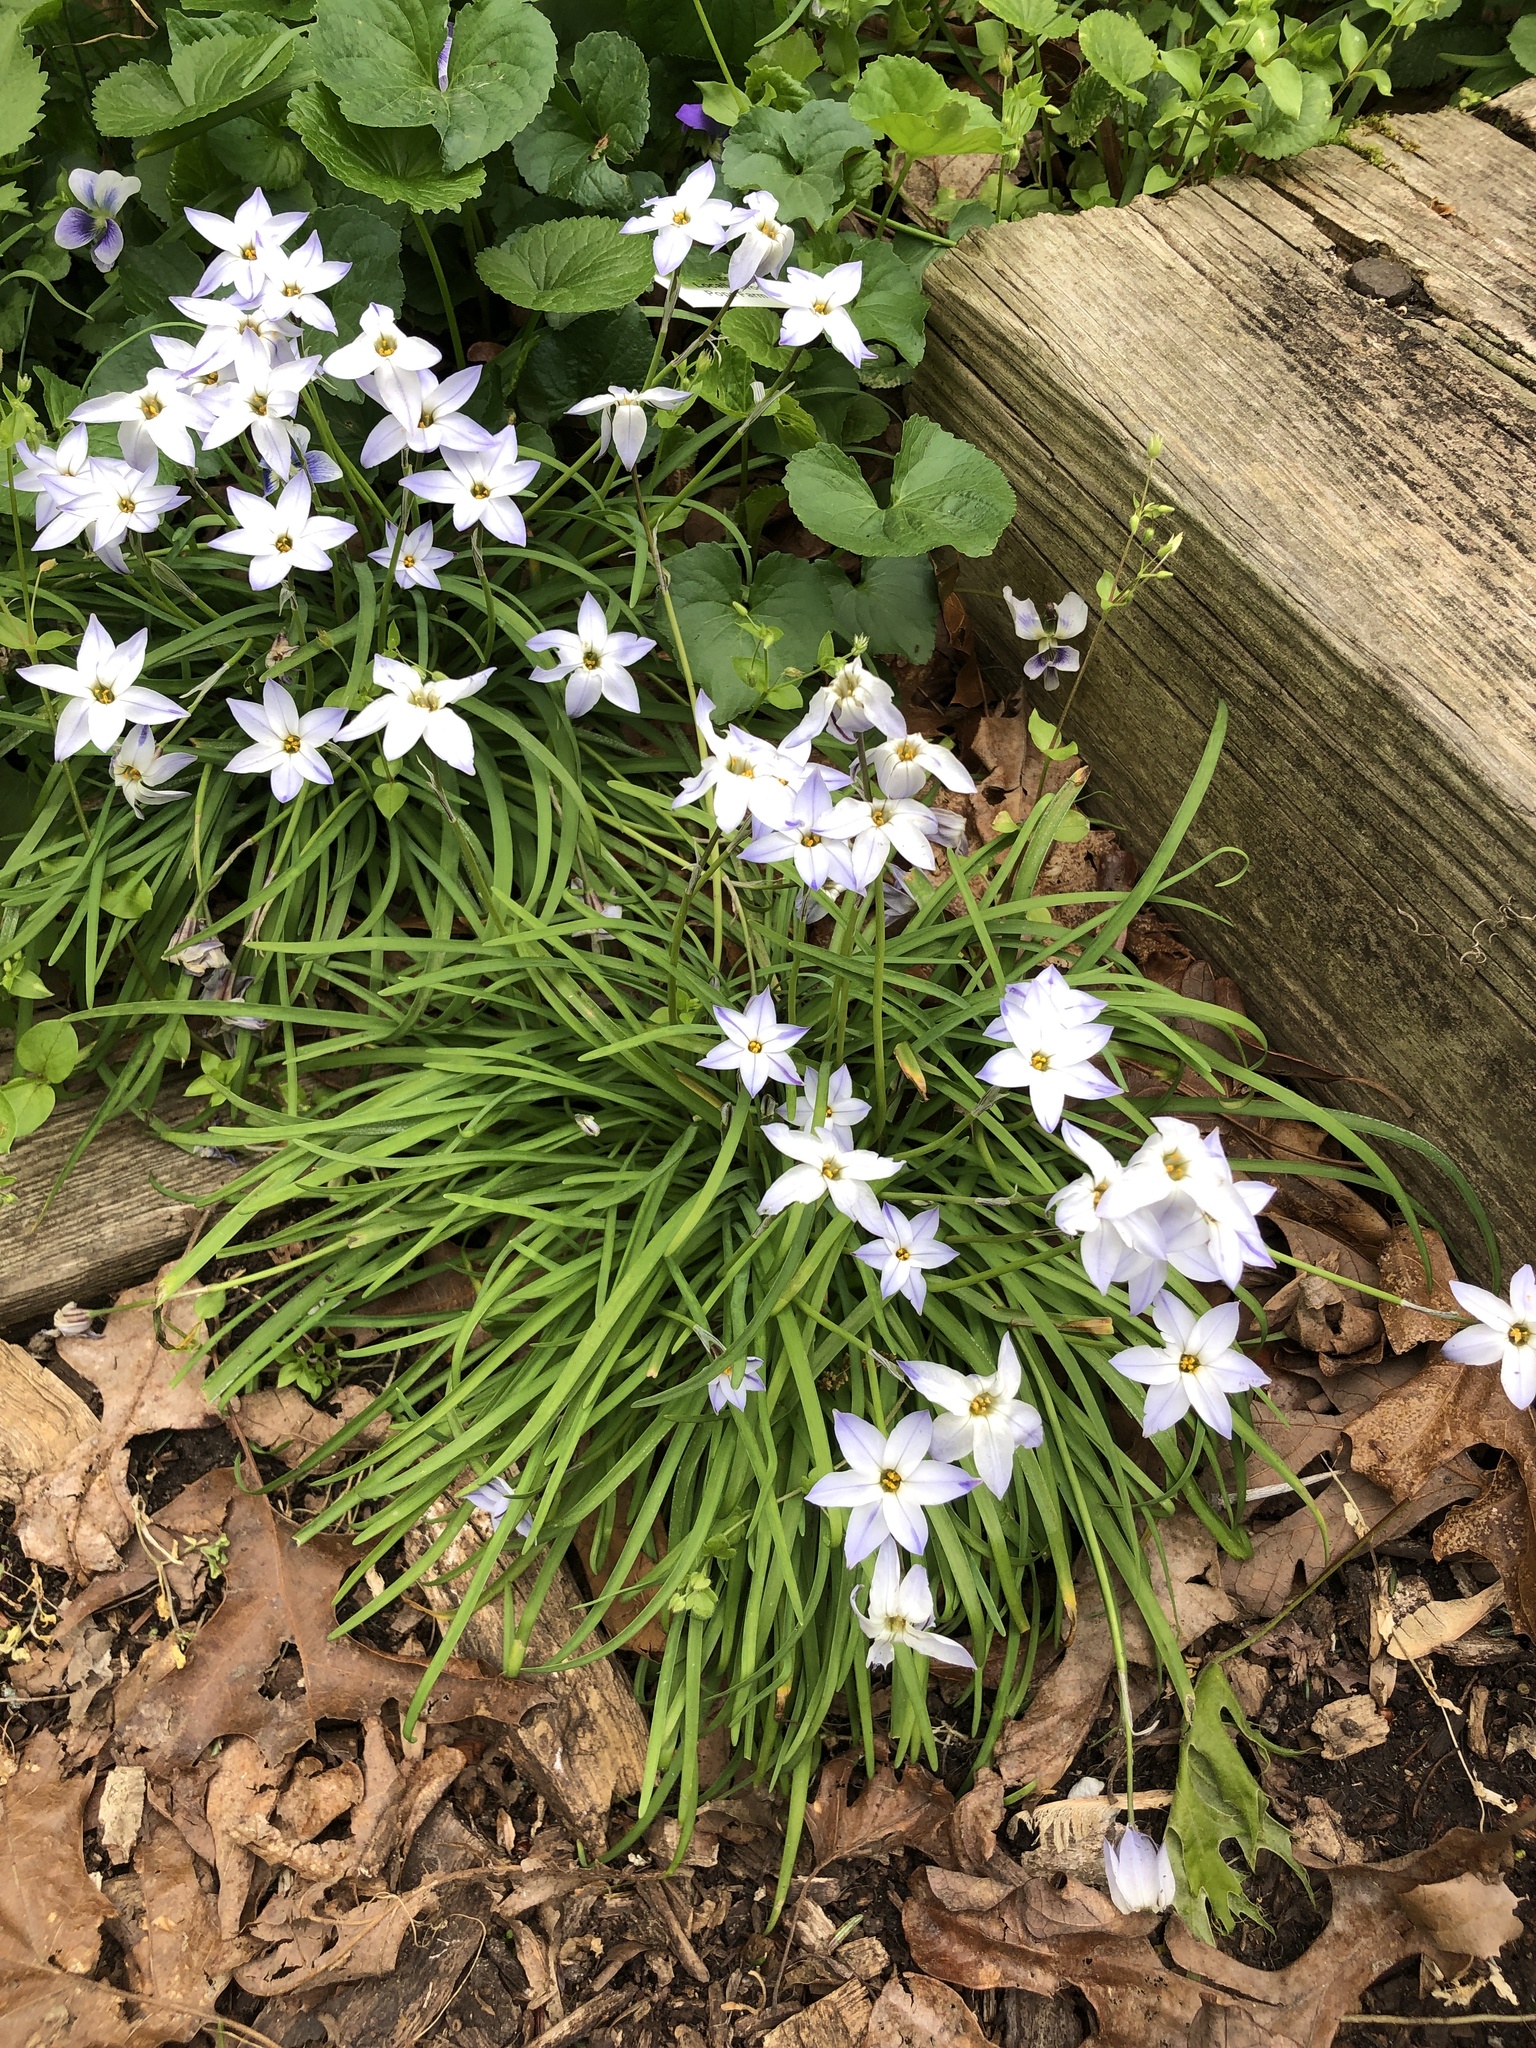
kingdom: Plantae
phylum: Tracheophyta
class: Liliopsida
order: Asparagales
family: Amaryllidaceae
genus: Ipheion
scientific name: Ipheion uniflorum
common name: Spring starflower
